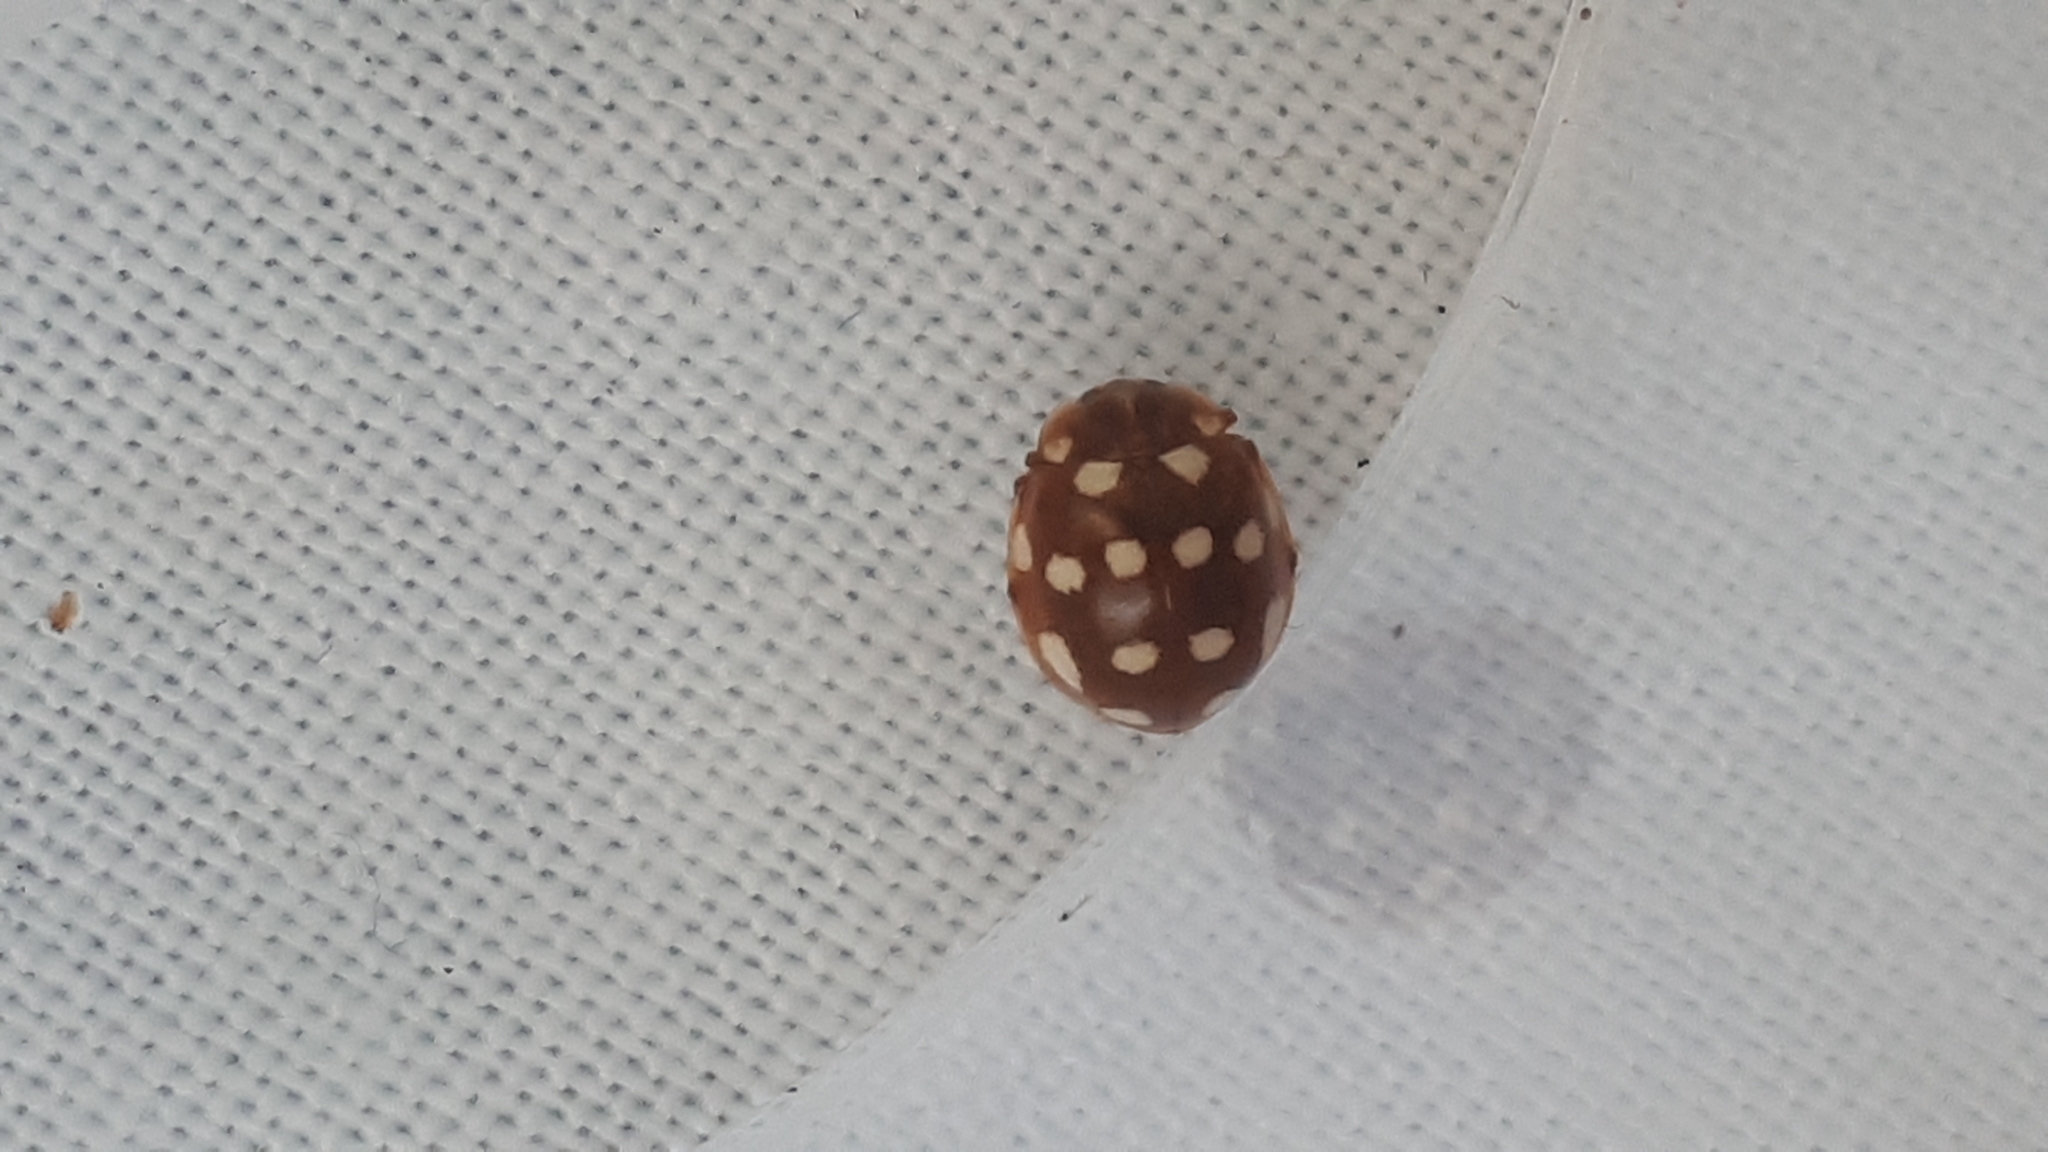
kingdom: Animalia
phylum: Arthropoda
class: Insecta
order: Coleoptera
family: Coccinellidae
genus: Calvia
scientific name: Calvia quatuordecimguttata
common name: Cream-spot ladybird
